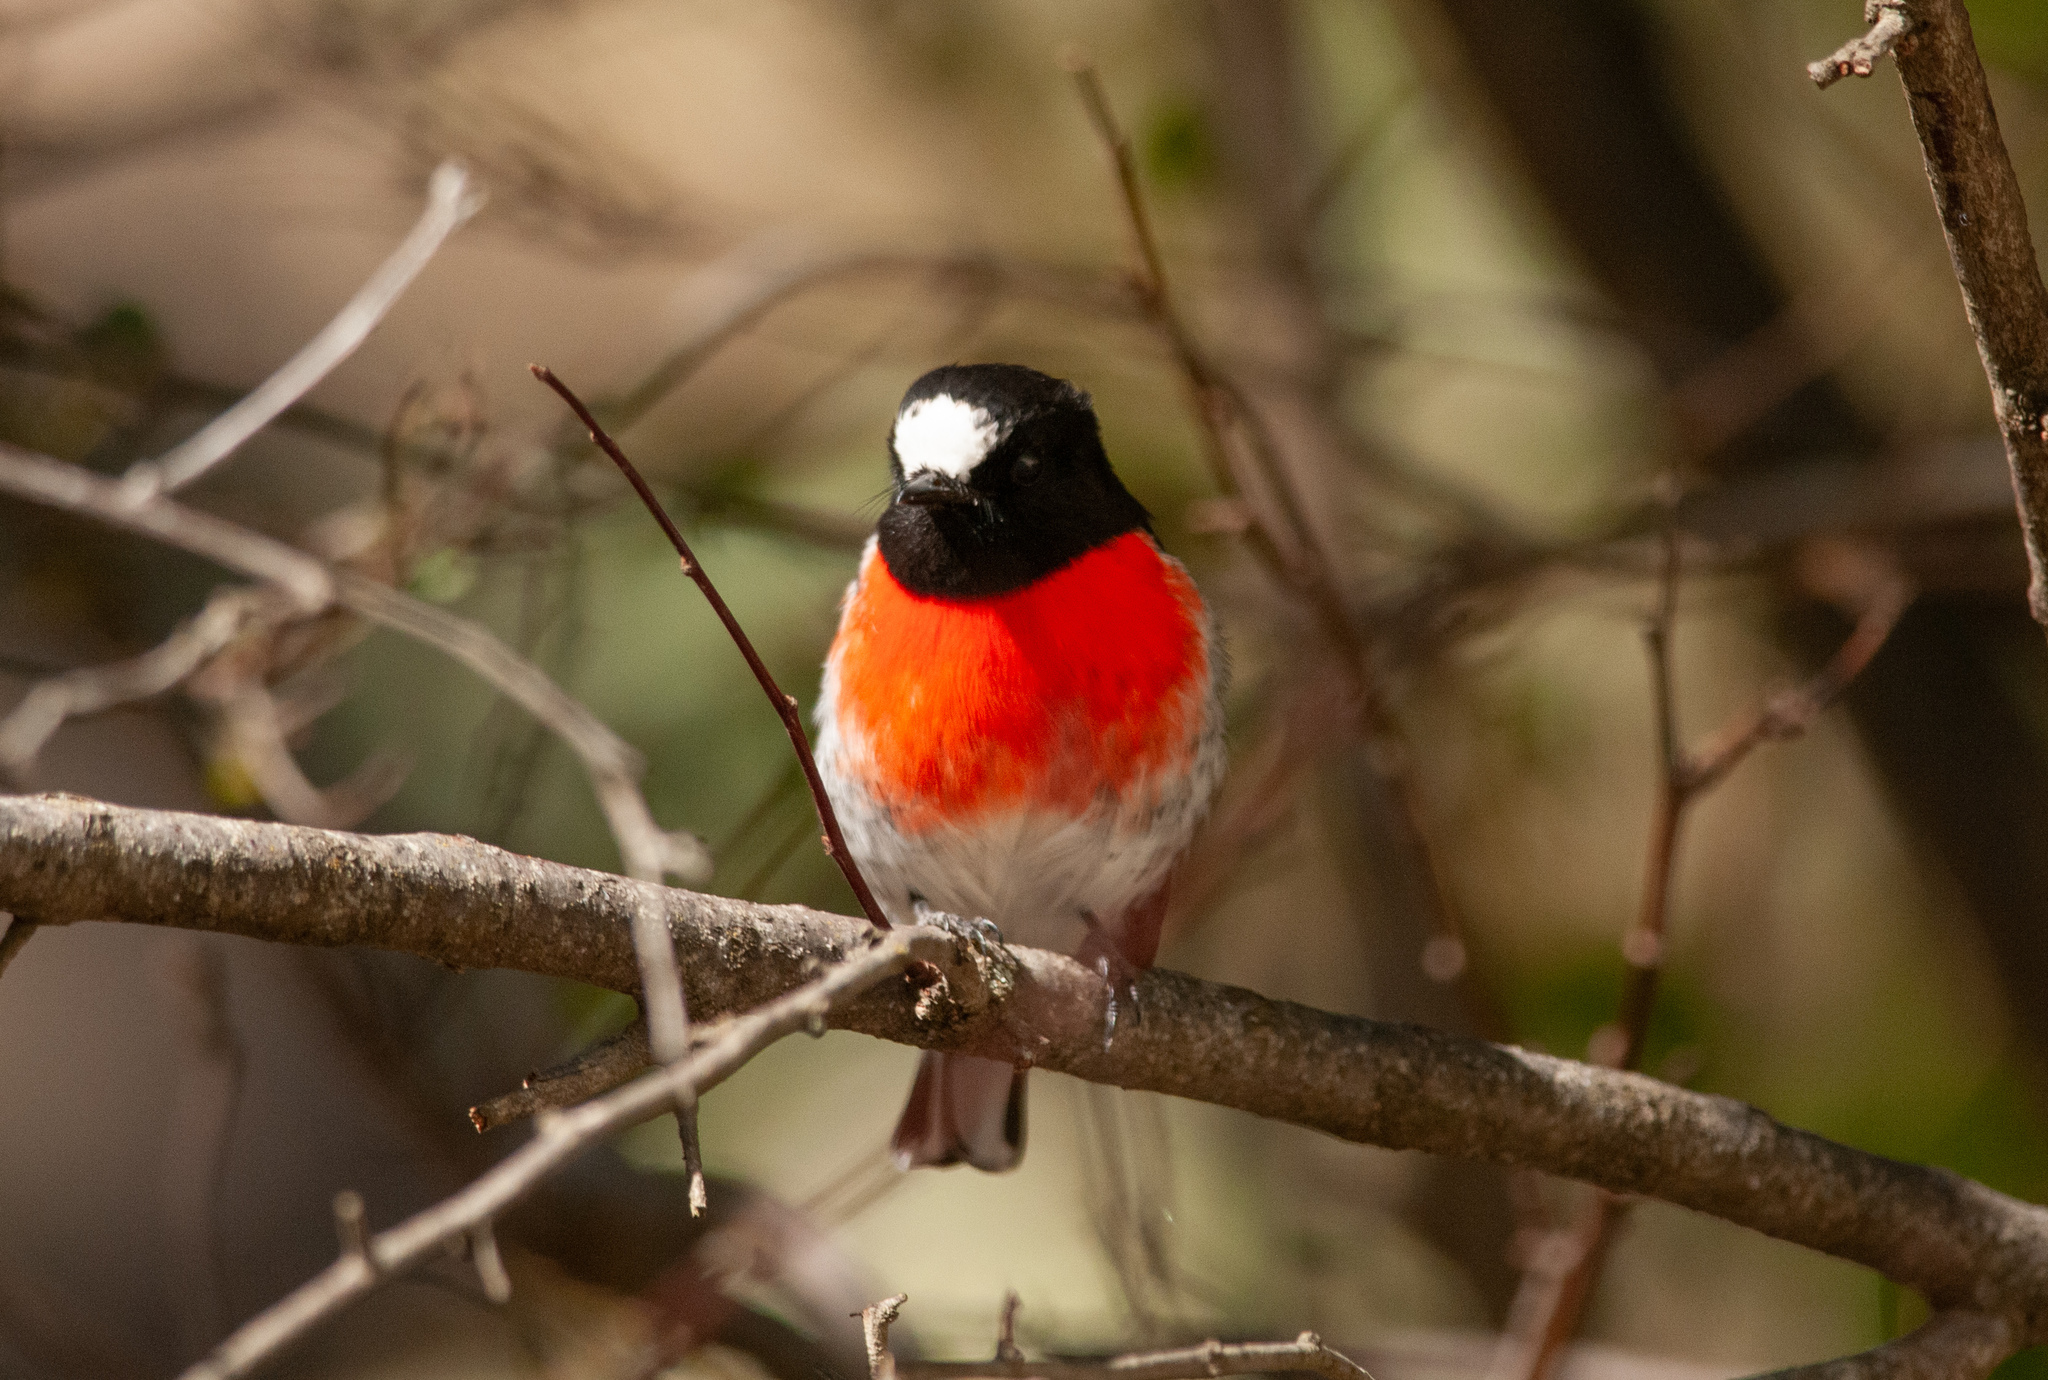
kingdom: Animalia
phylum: Chordata
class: Aves
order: Passeriformes
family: Petroicidae
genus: Petroica
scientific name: Petroica boodang
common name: Scarlet robin
